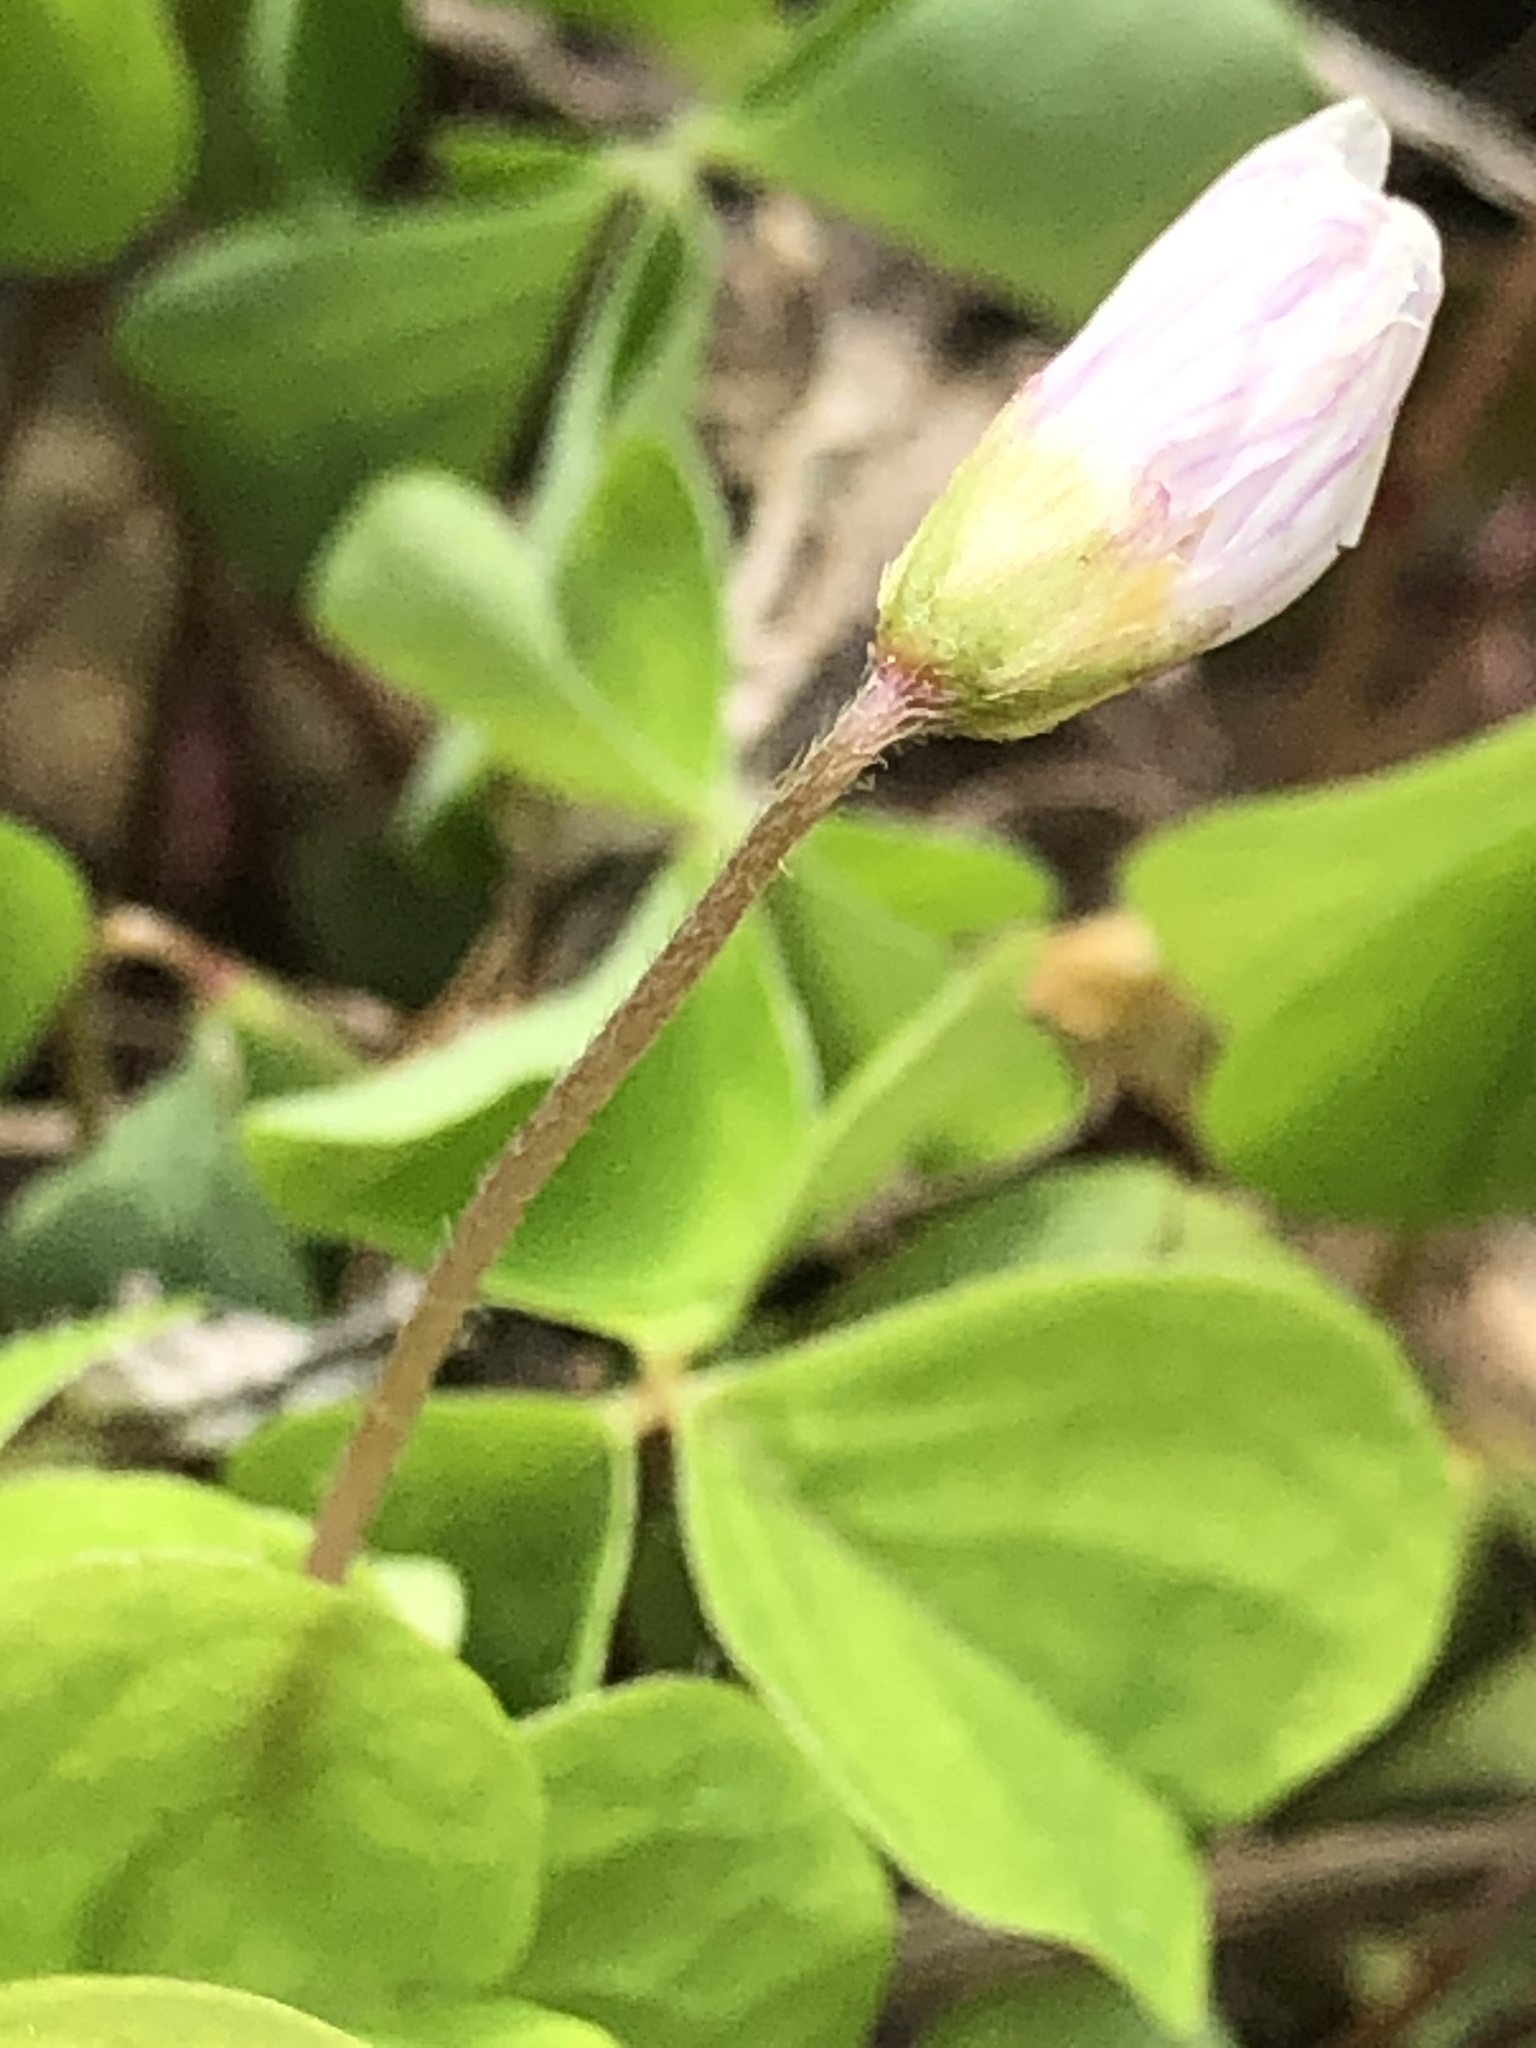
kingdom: Plantae
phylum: Tracheophyta
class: Magnoliopsida
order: Oxalidales
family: Oxalidaceae
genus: Oxalis
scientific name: Oxalis acetosella
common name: Wood-sorrel
